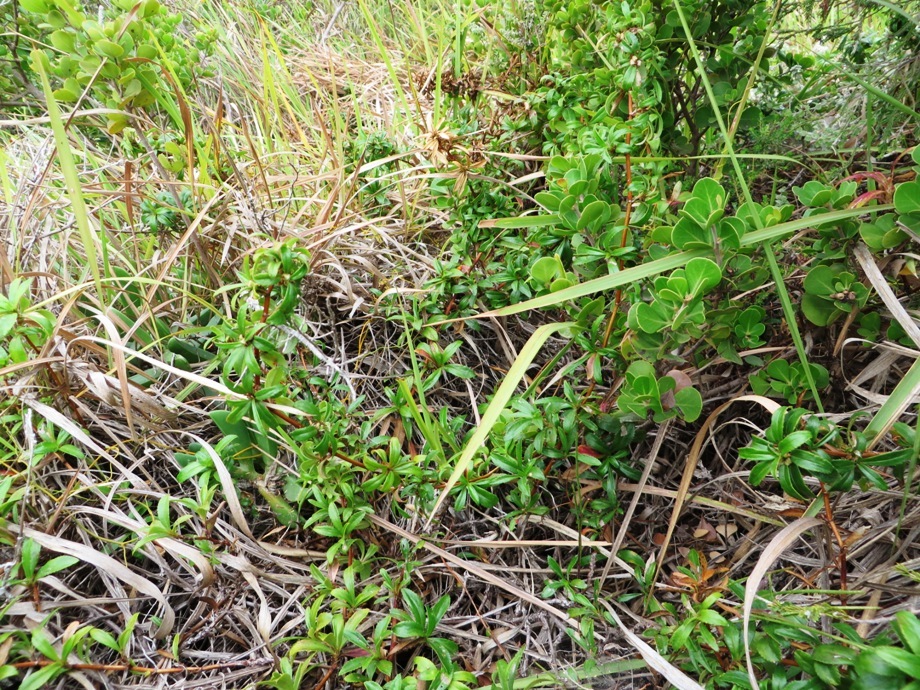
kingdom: Plantae
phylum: Tracheophyta
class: Magnoliopsida
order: Rosales
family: Rosaceae
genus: Cliffortia
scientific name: Cliffortia ferruginea
